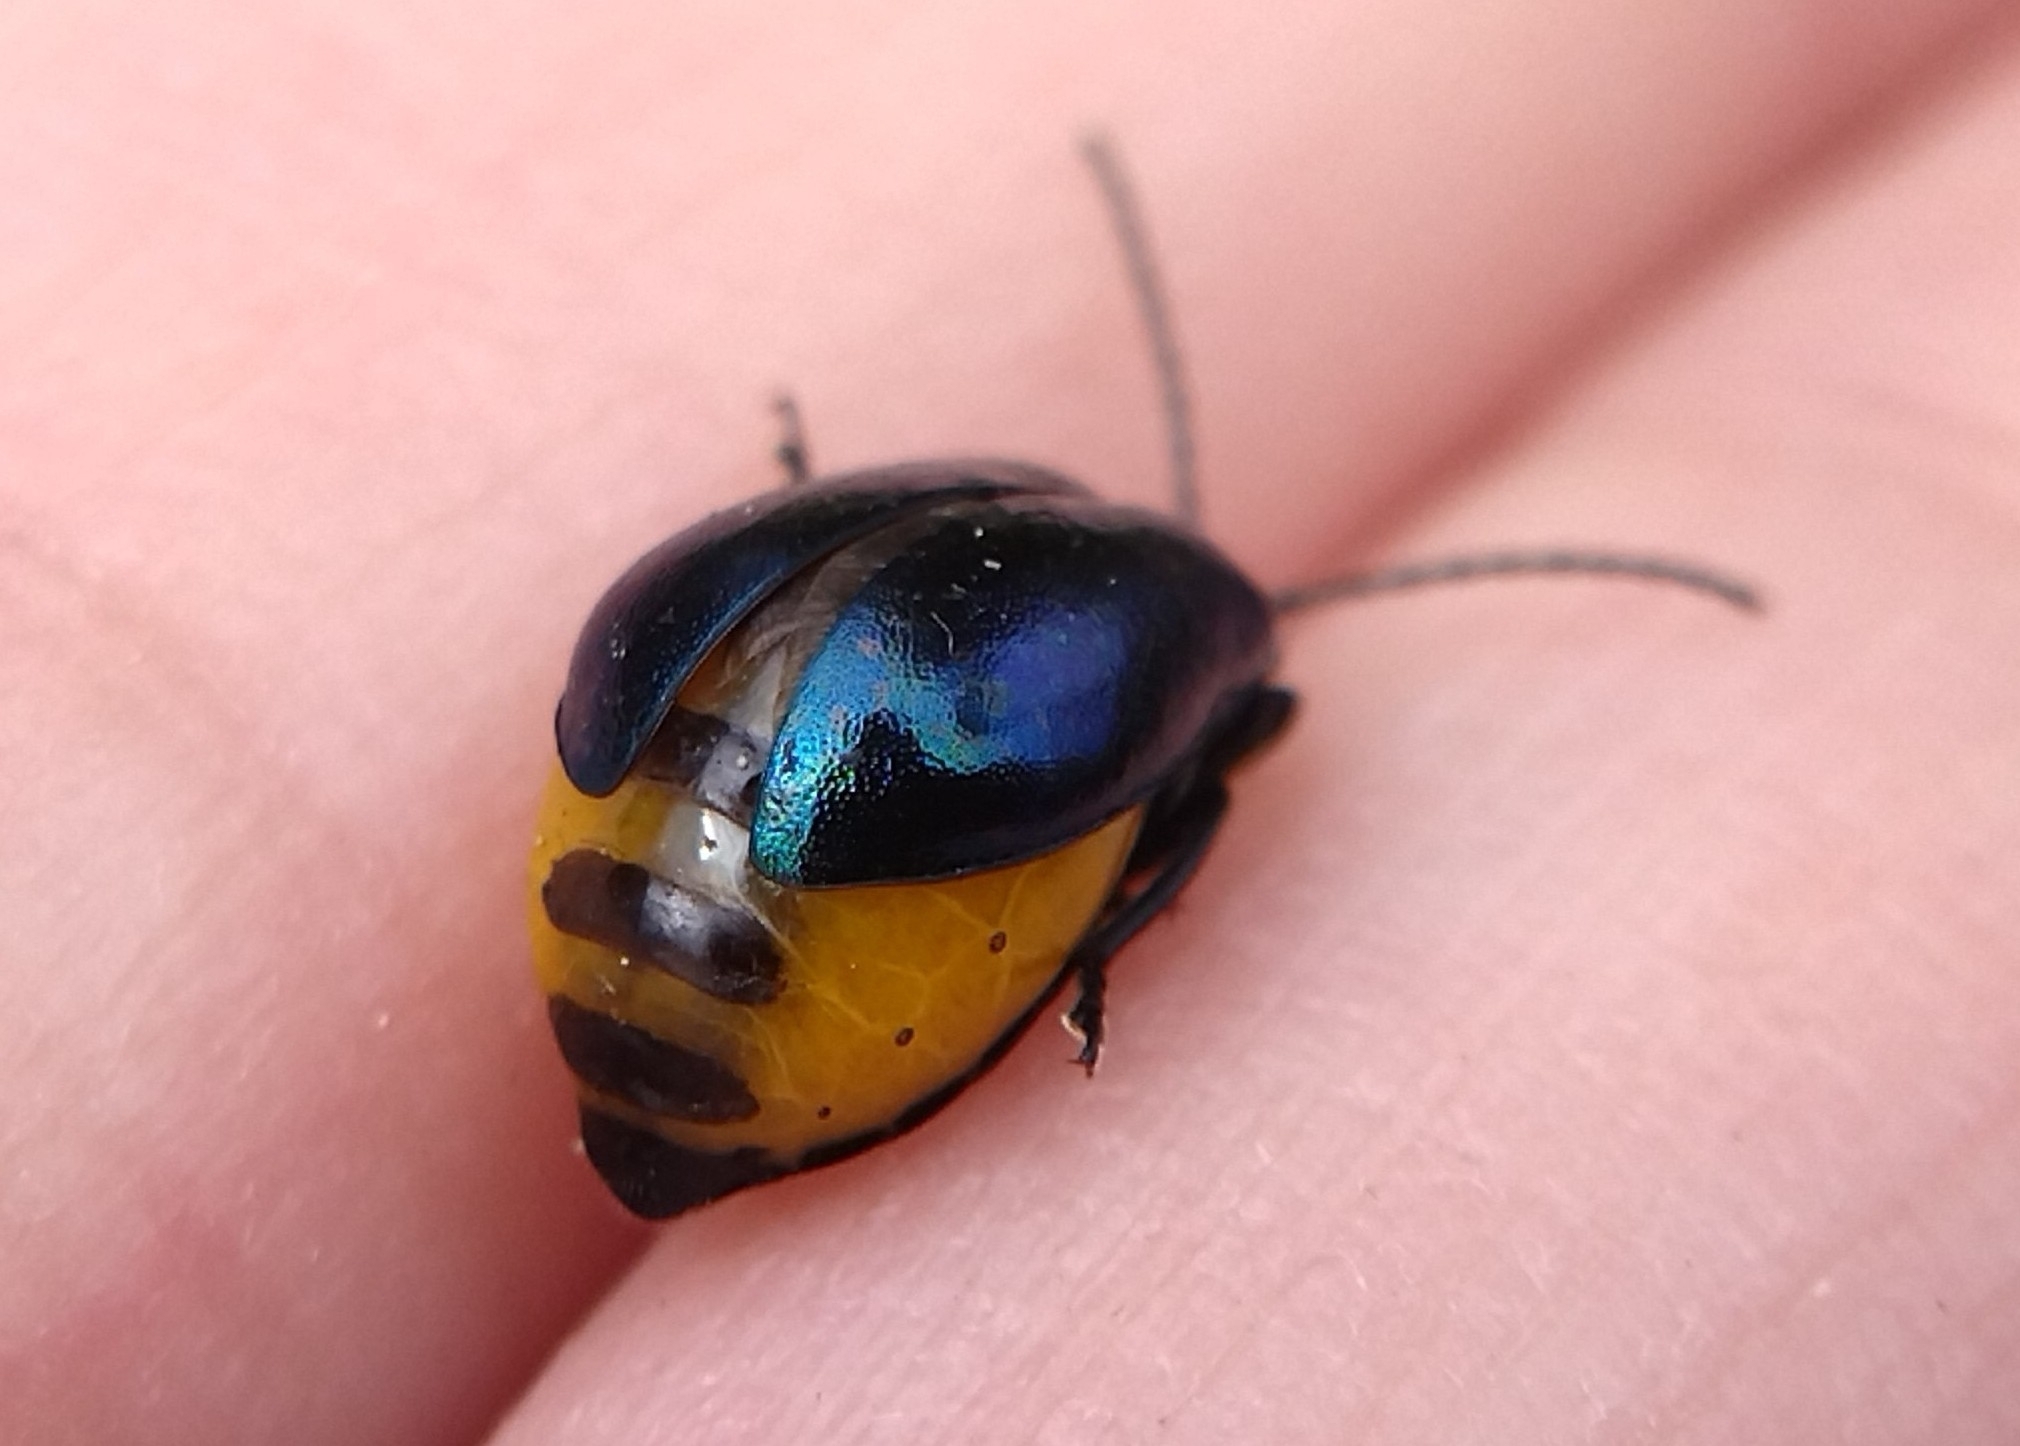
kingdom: Animalia
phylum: Arthropoda
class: Insecta
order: Coleoptera
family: Chrysomelidae
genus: Agelastica
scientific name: Agelastica alni
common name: Alder leaf beetle
